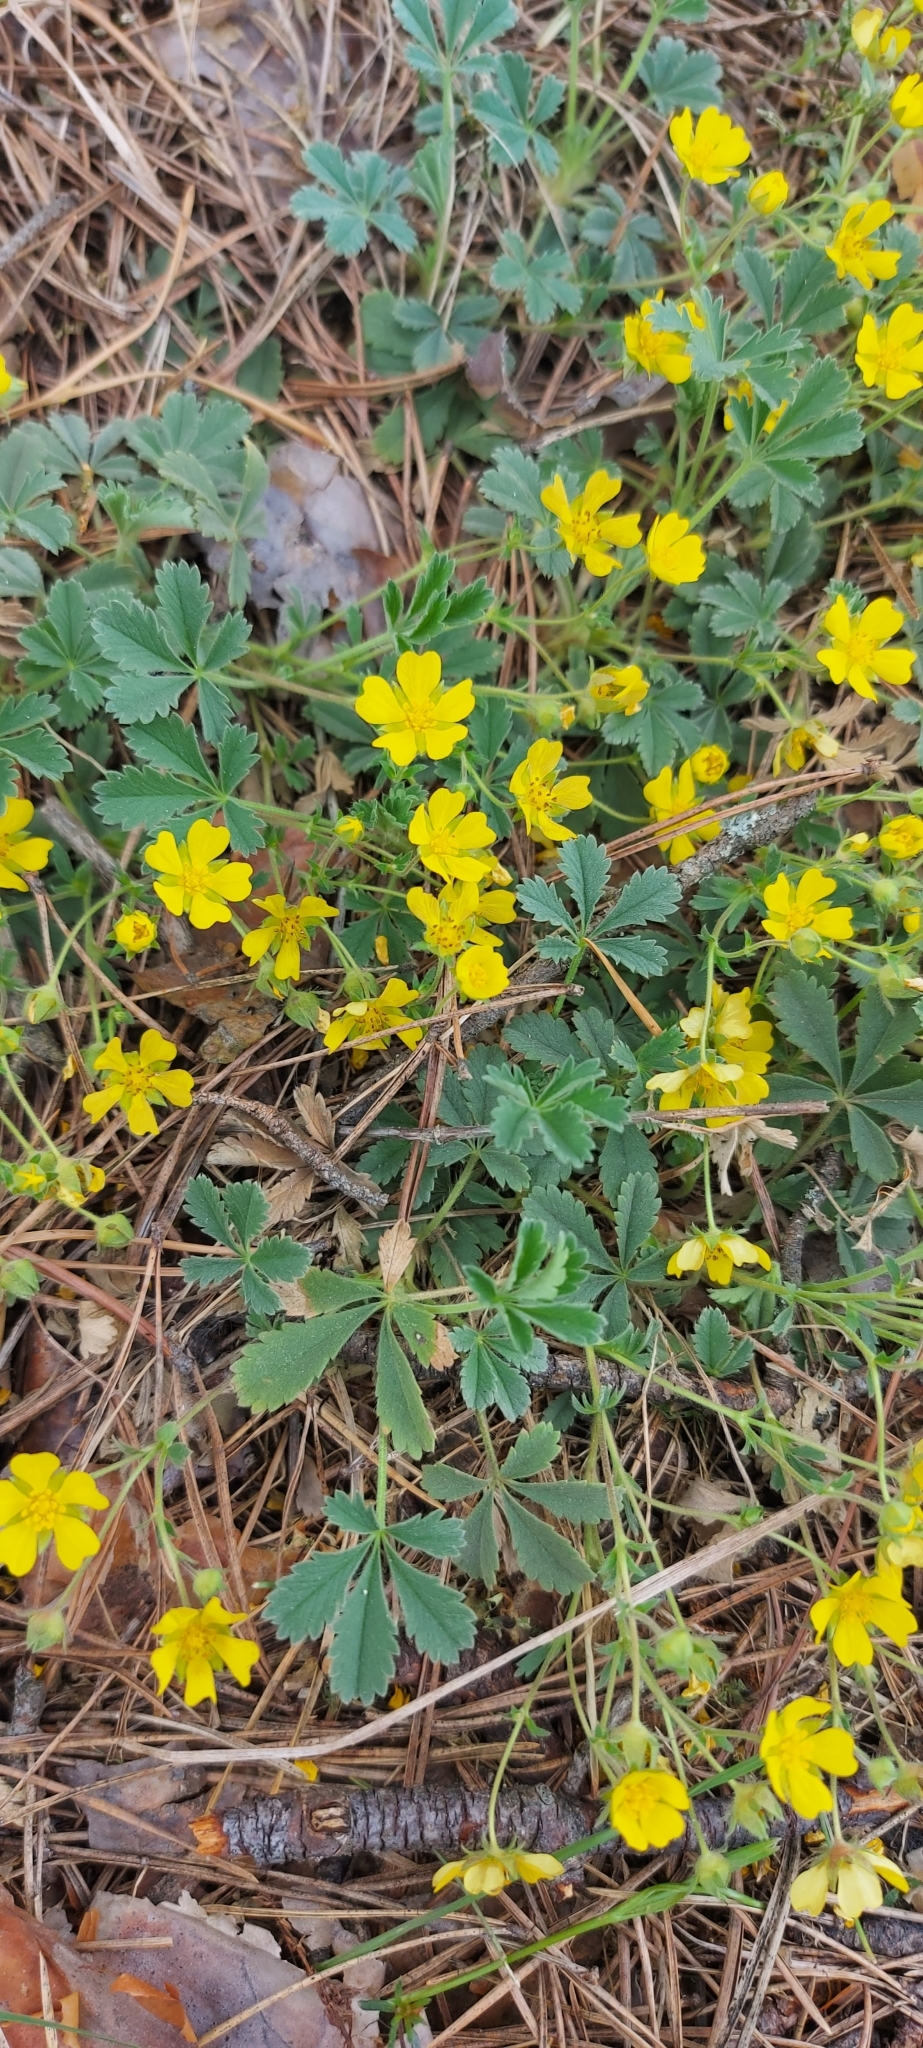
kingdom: Plantae
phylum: Tracheophyta
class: Magnoliopsida
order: Rosales
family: Rosaceae
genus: Potentilla
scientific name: Potentilla incana
